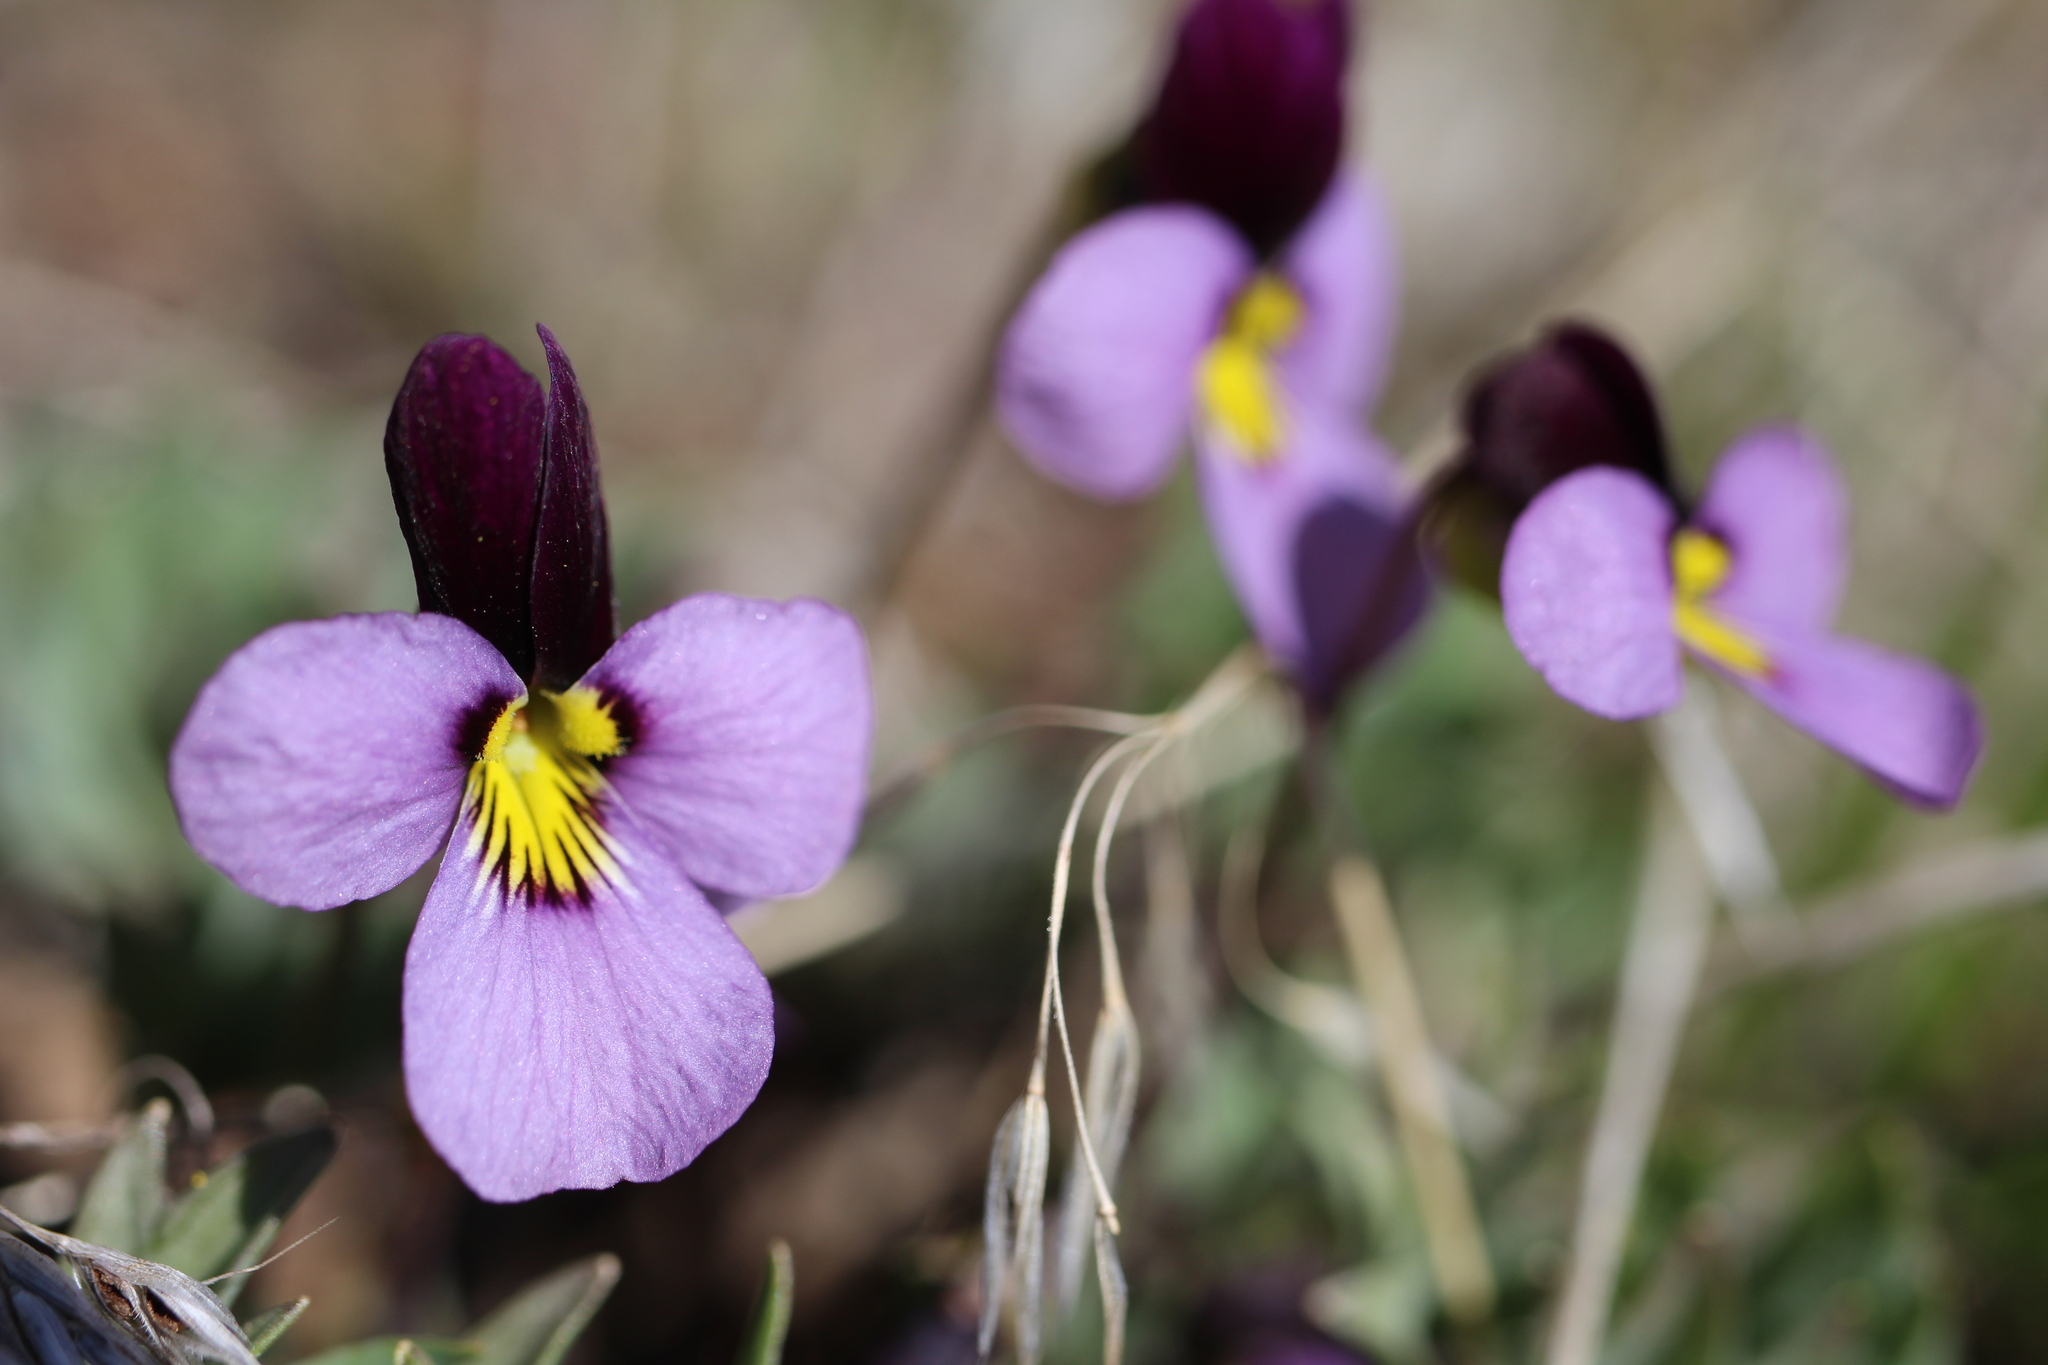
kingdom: Plantae
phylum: Tracheophyta
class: Magnoliopsida
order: Malpighiales
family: Violaceae
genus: Viola
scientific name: Viola trinervata
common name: Sagebrush violet
